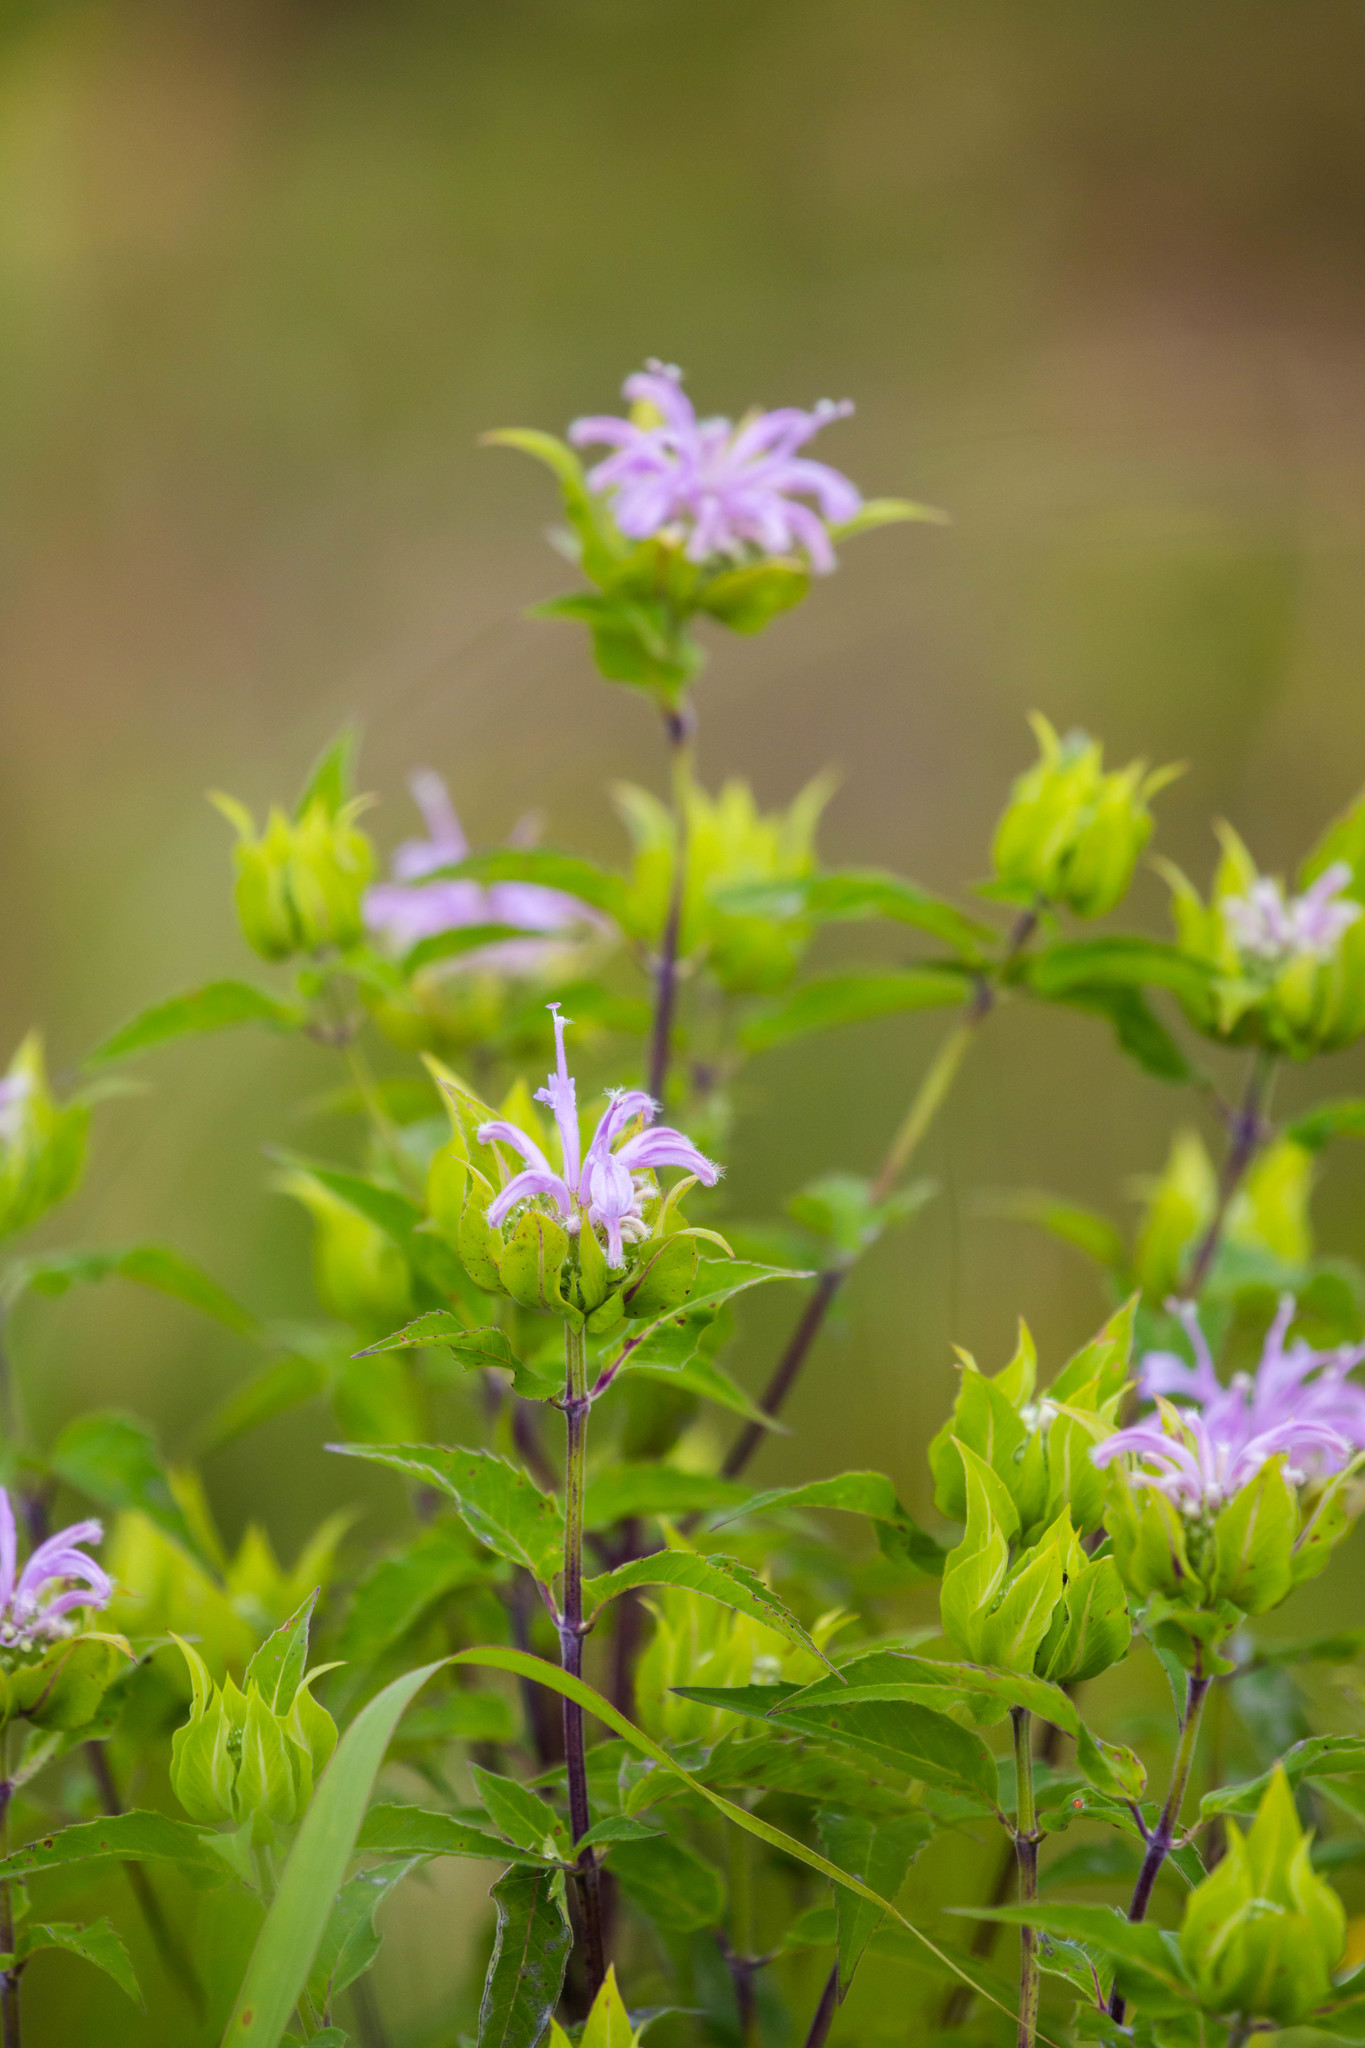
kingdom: Plantae
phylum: Tracheophyta
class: Magnoliopsida
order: Lamiales
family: Lamiaceae
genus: Monarda
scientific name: Monarda fistulosa
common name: Purple beebalm
